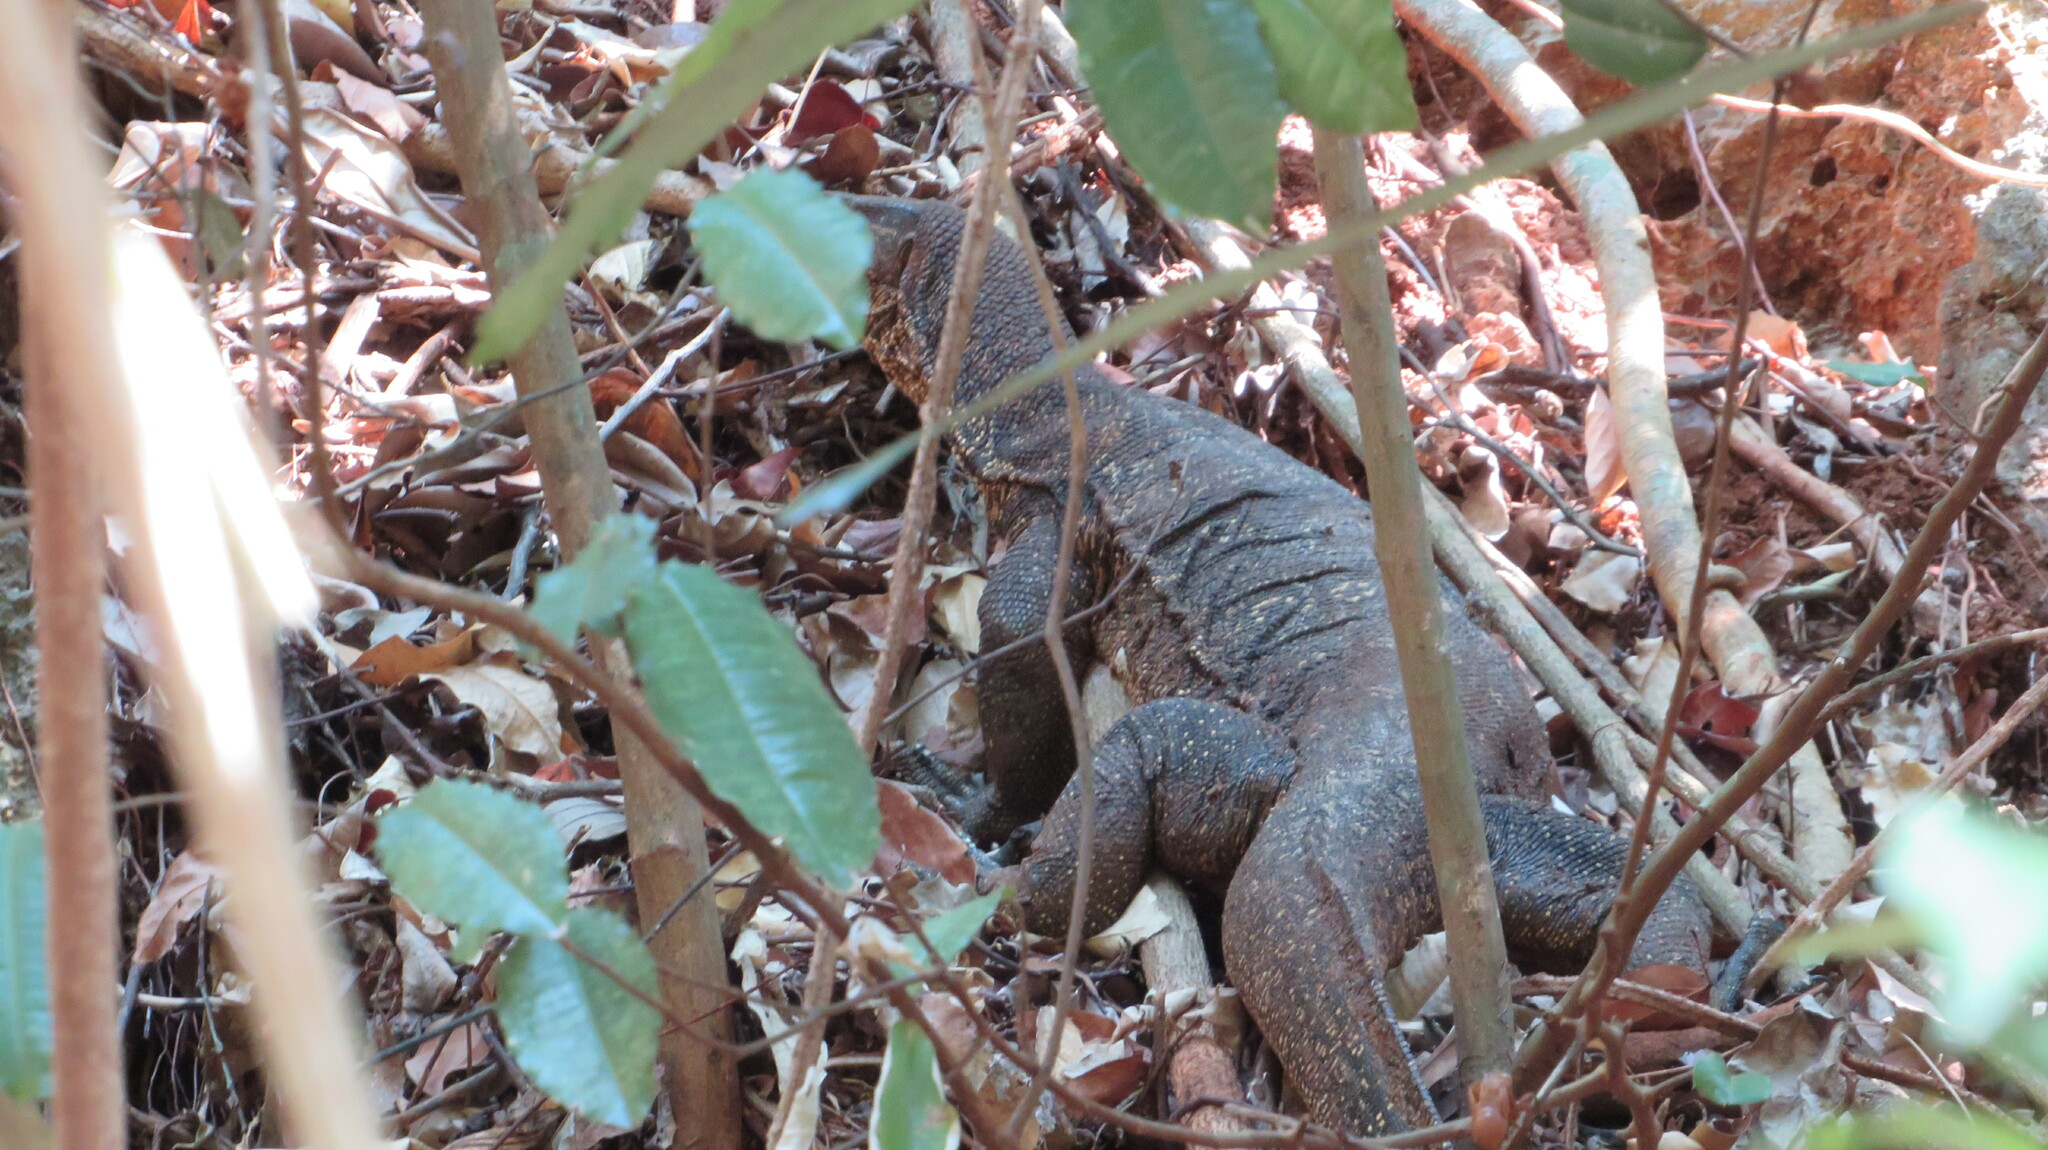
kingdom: Animalia
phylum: Chordata
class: Squamata
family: Varanidae
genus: Varanus
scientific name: Varanus salvator
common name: Common water monitor
